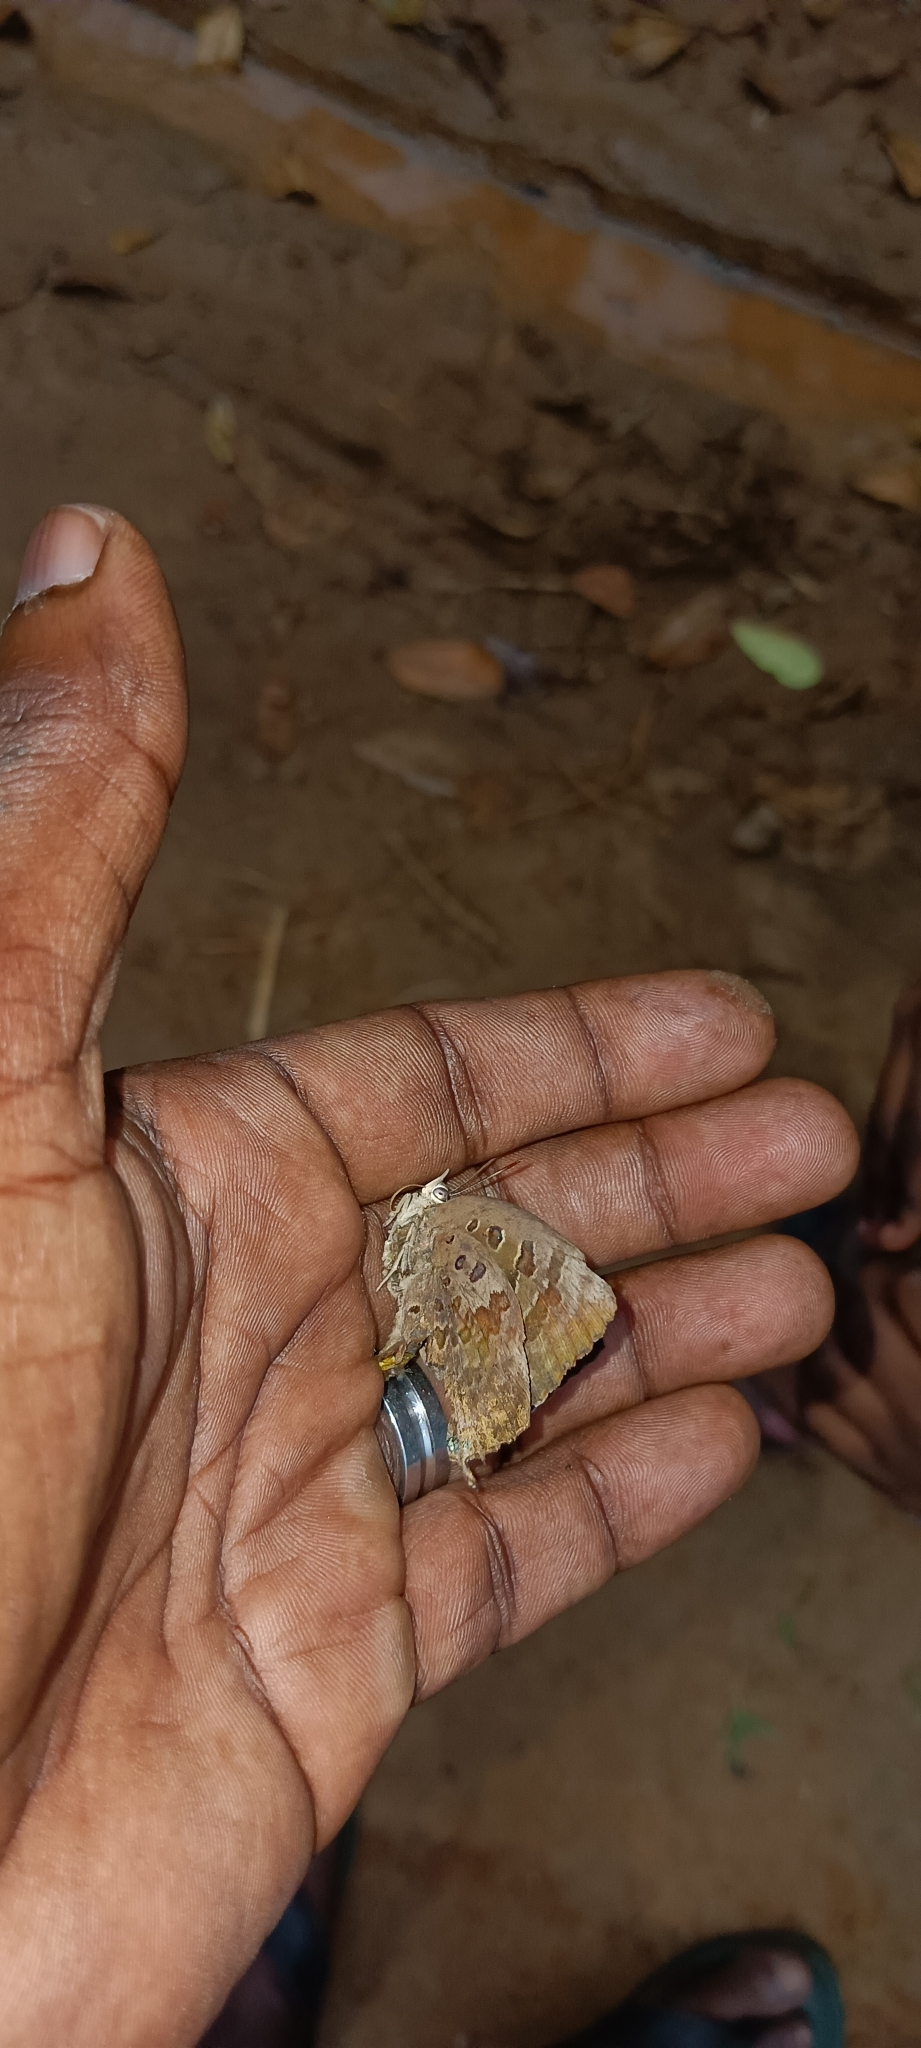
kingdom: Animalia
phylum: Arthropoda
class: Insecta
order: Lepidoptera
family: Lycaenidae
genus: Arhopala
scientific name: Arhopala amantes
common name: Large oakblue
